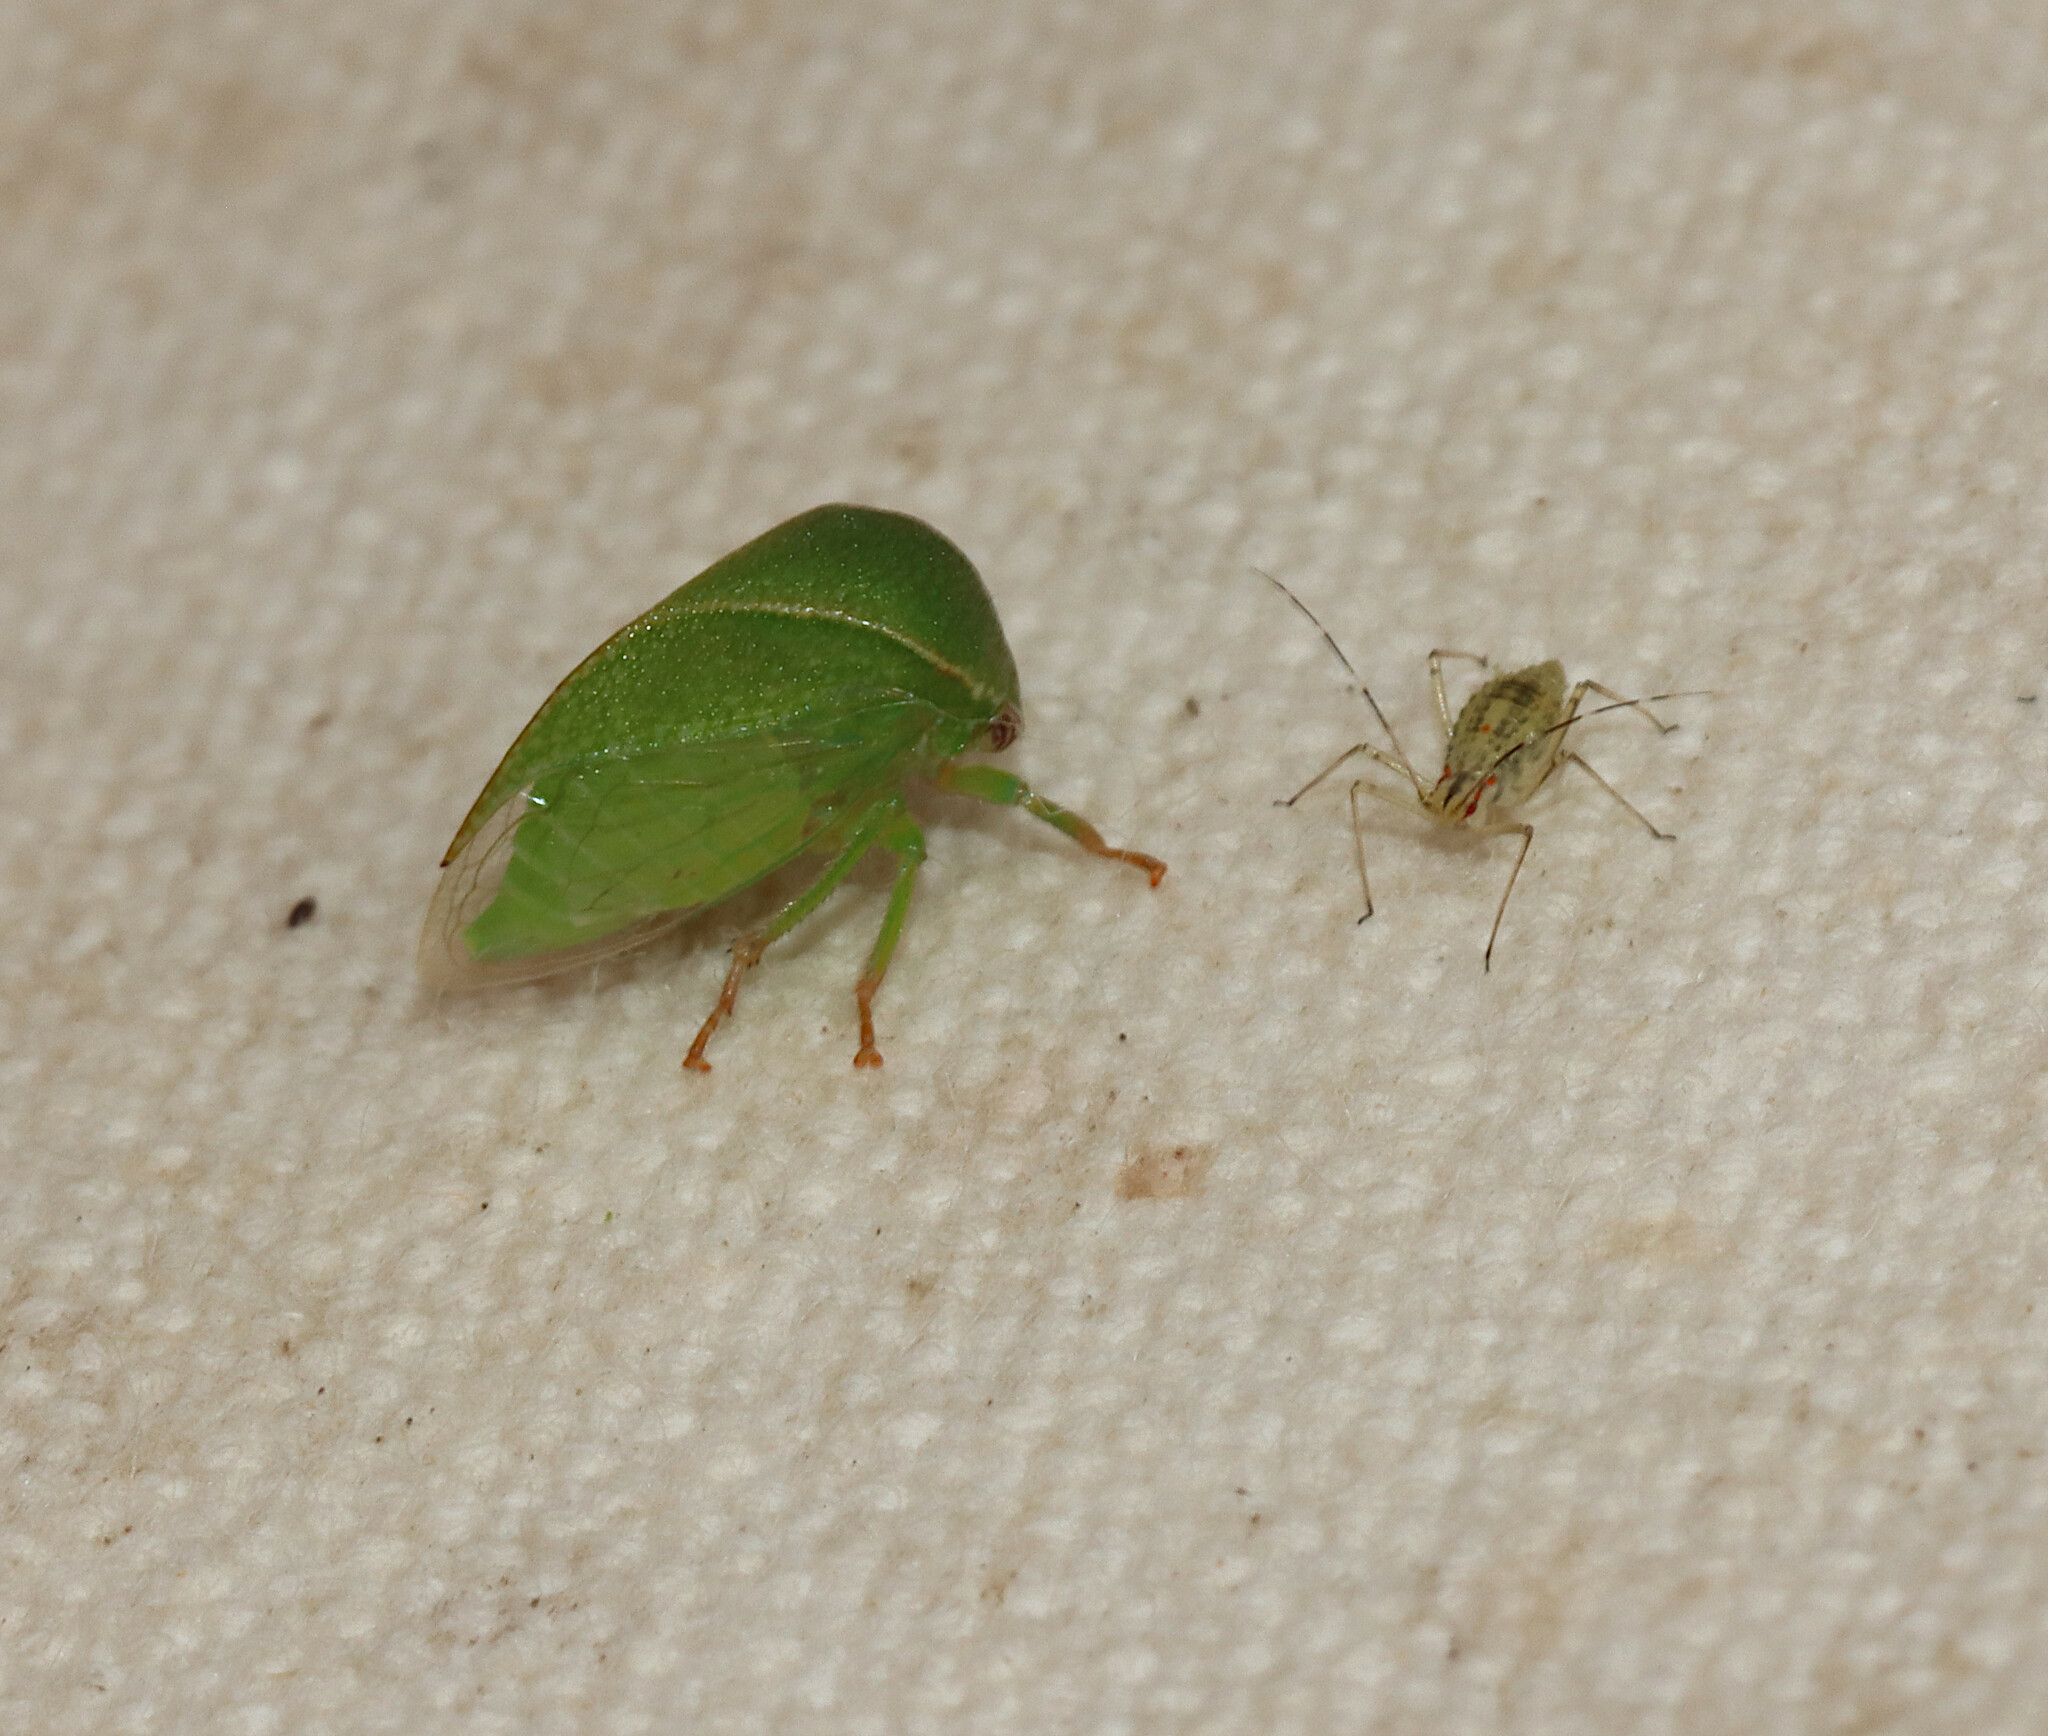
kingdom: Animalia
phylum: Arthropoda
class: Insecta
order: Hemiptera
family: Membracidae
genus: Spissistilus
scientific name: Spissistilus festina
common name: Membracid bug
